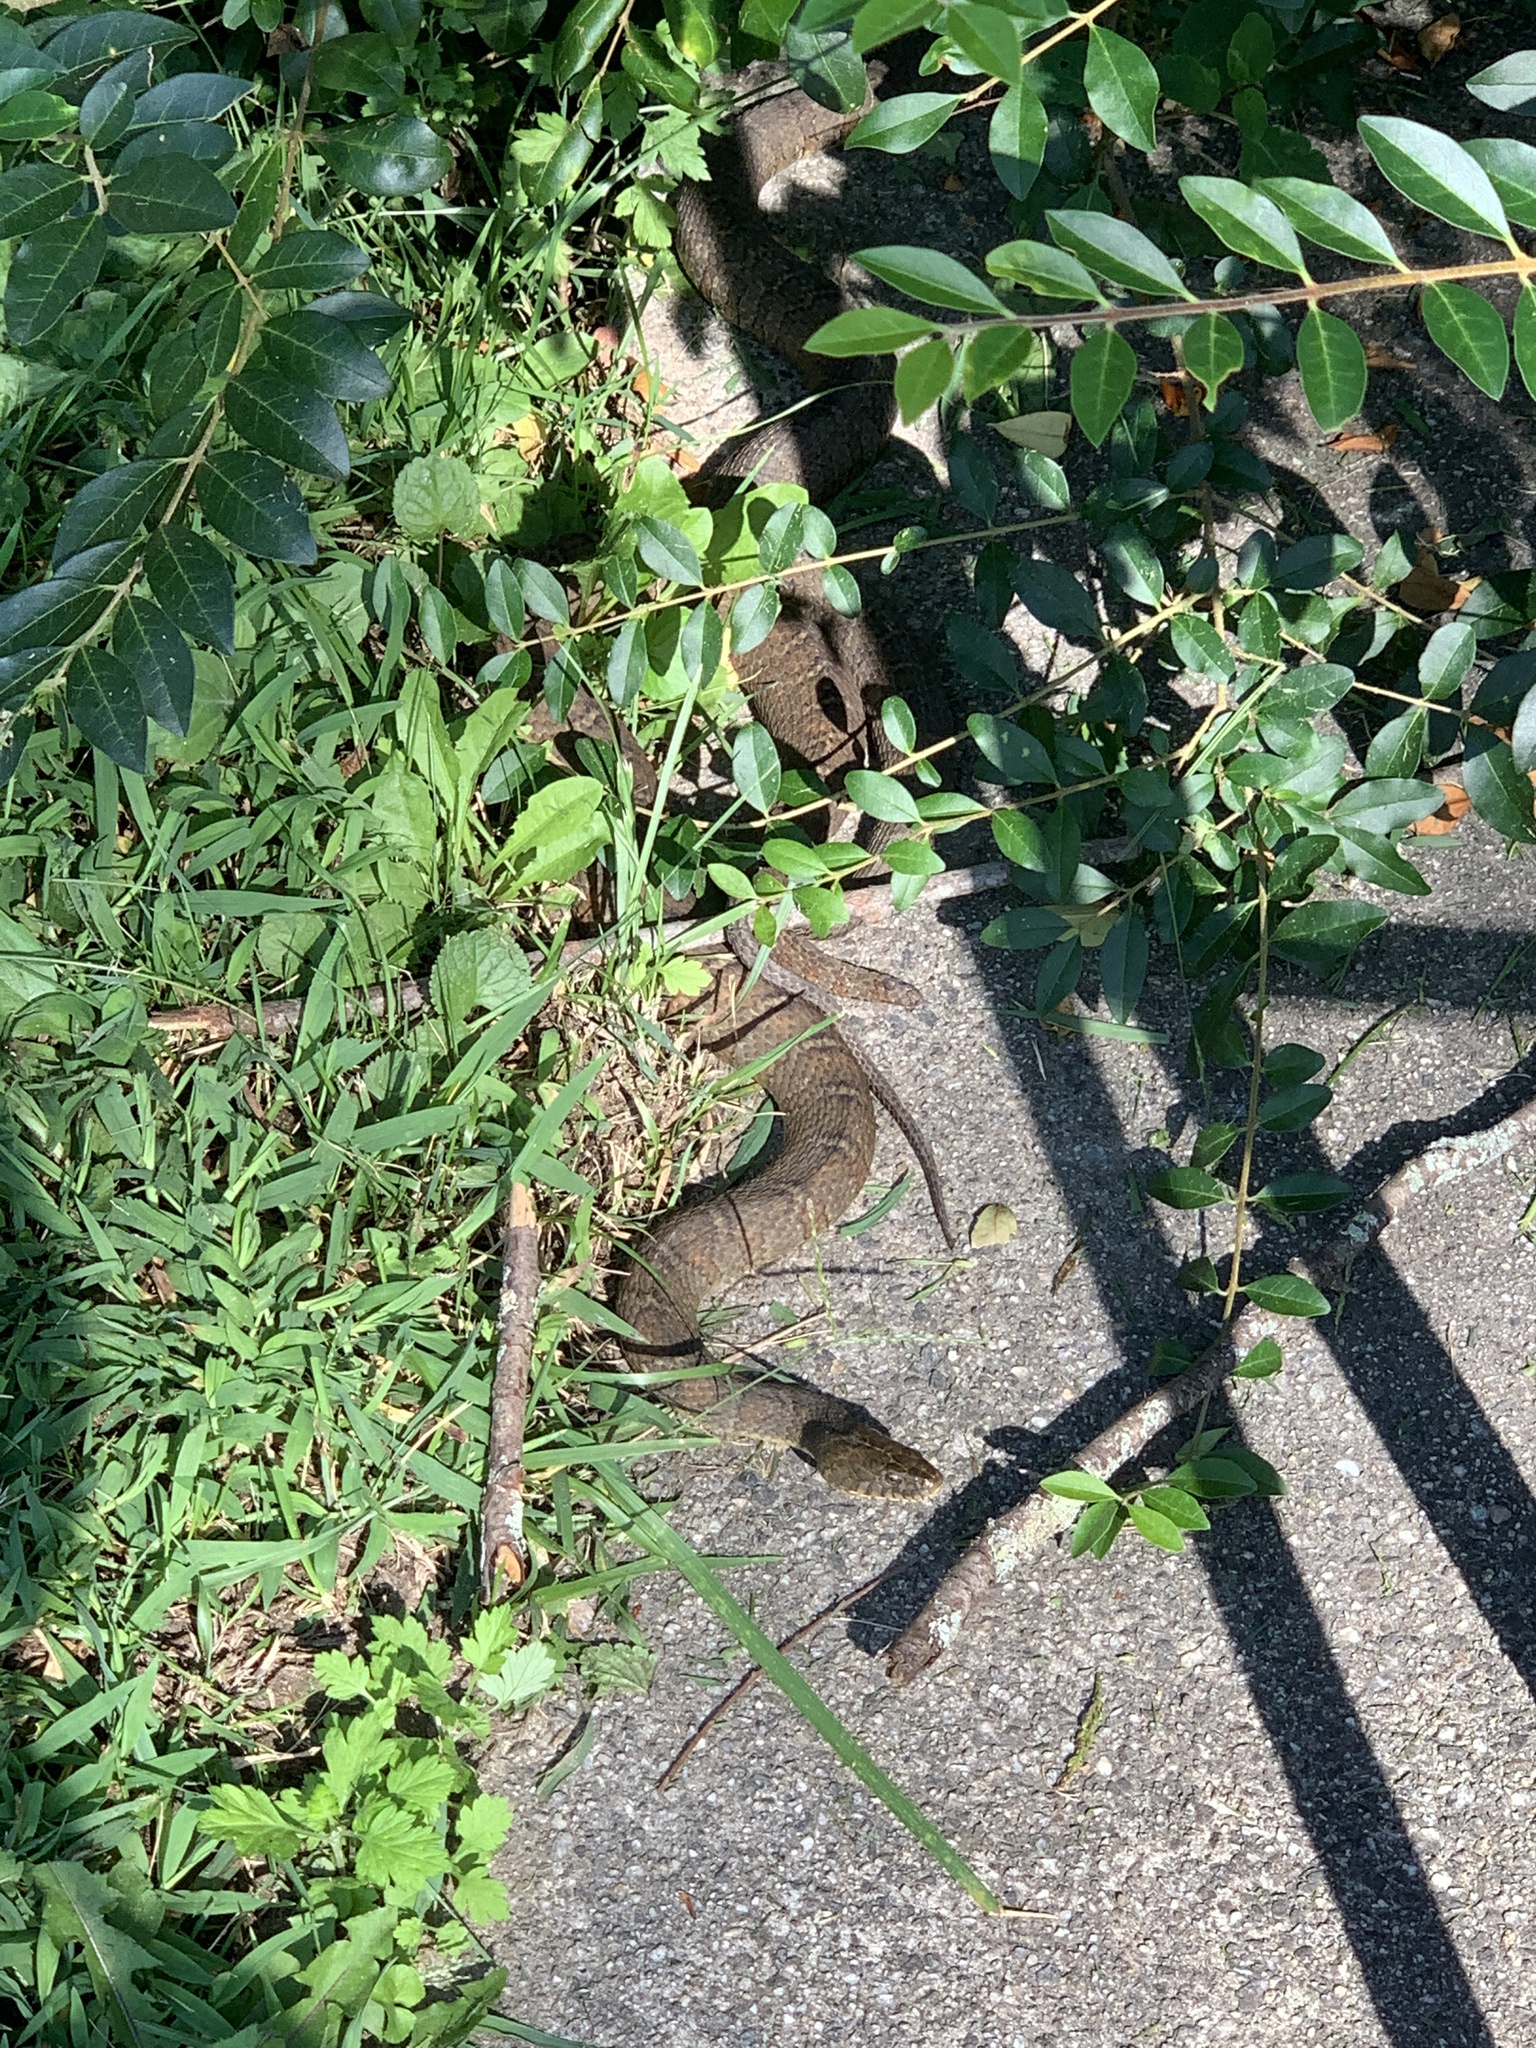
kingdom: Animalia
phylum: Chordata
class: Squamata
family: Colubridae
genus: Nerodia
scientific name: Nerodia sipedon
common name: Northern water snake
